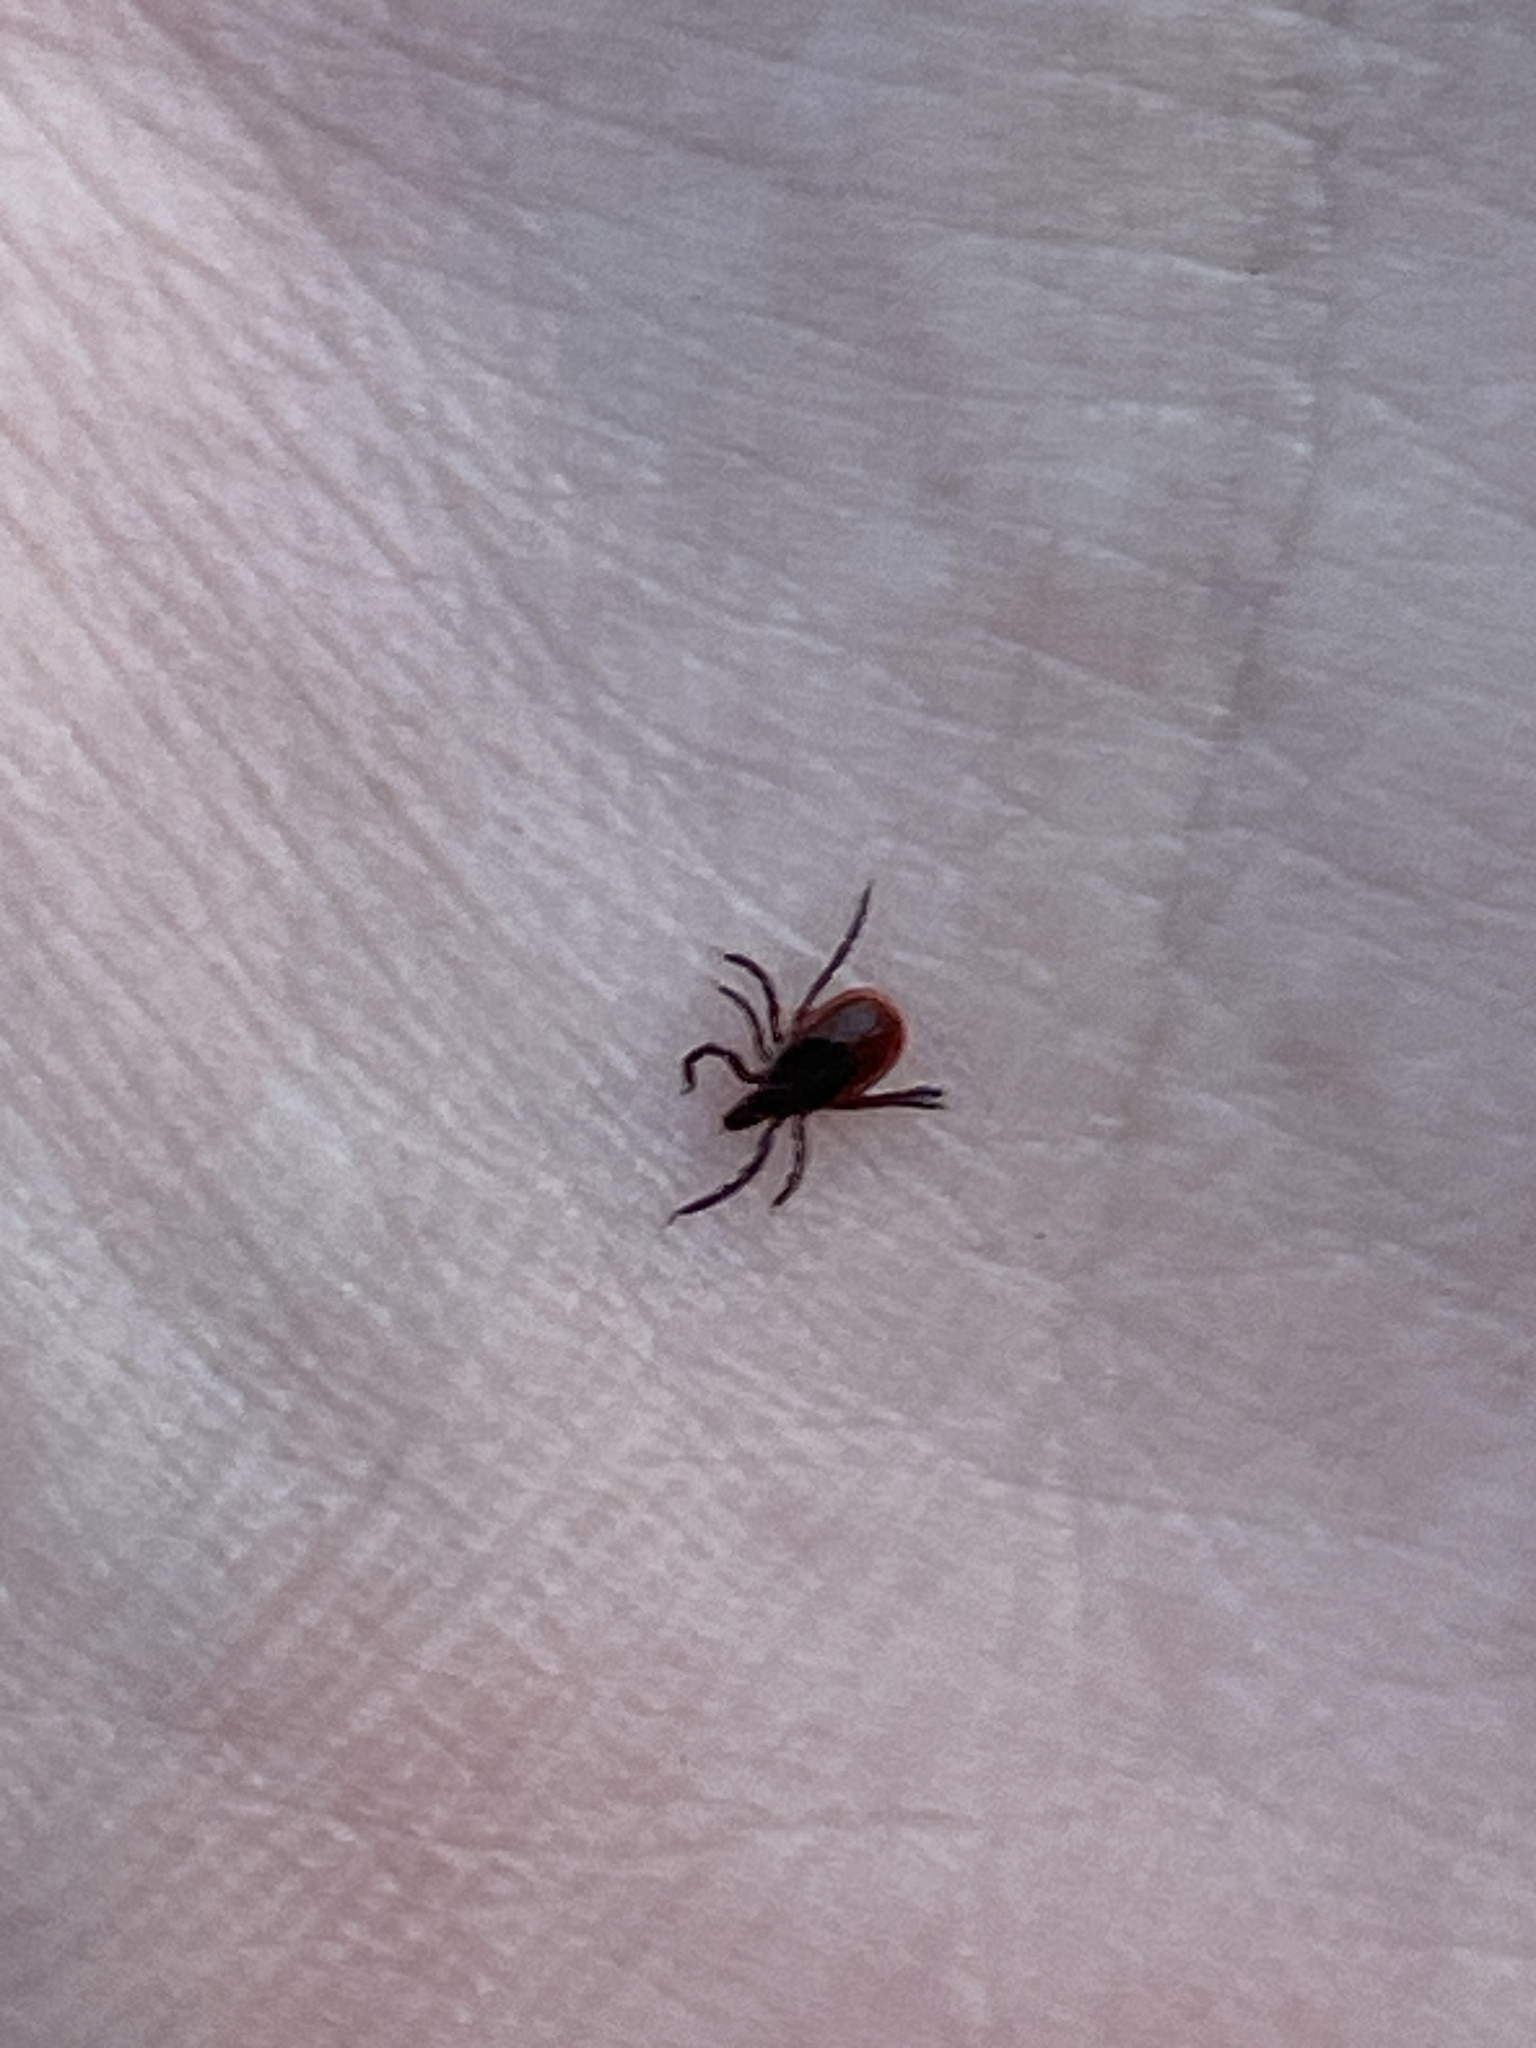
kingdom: Animalia
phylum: Arthropoda
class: Arachnida
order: Ixodida
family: Ixodidae
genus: Ixodes
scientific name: Ixodes scapularis
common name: Black legged tick
